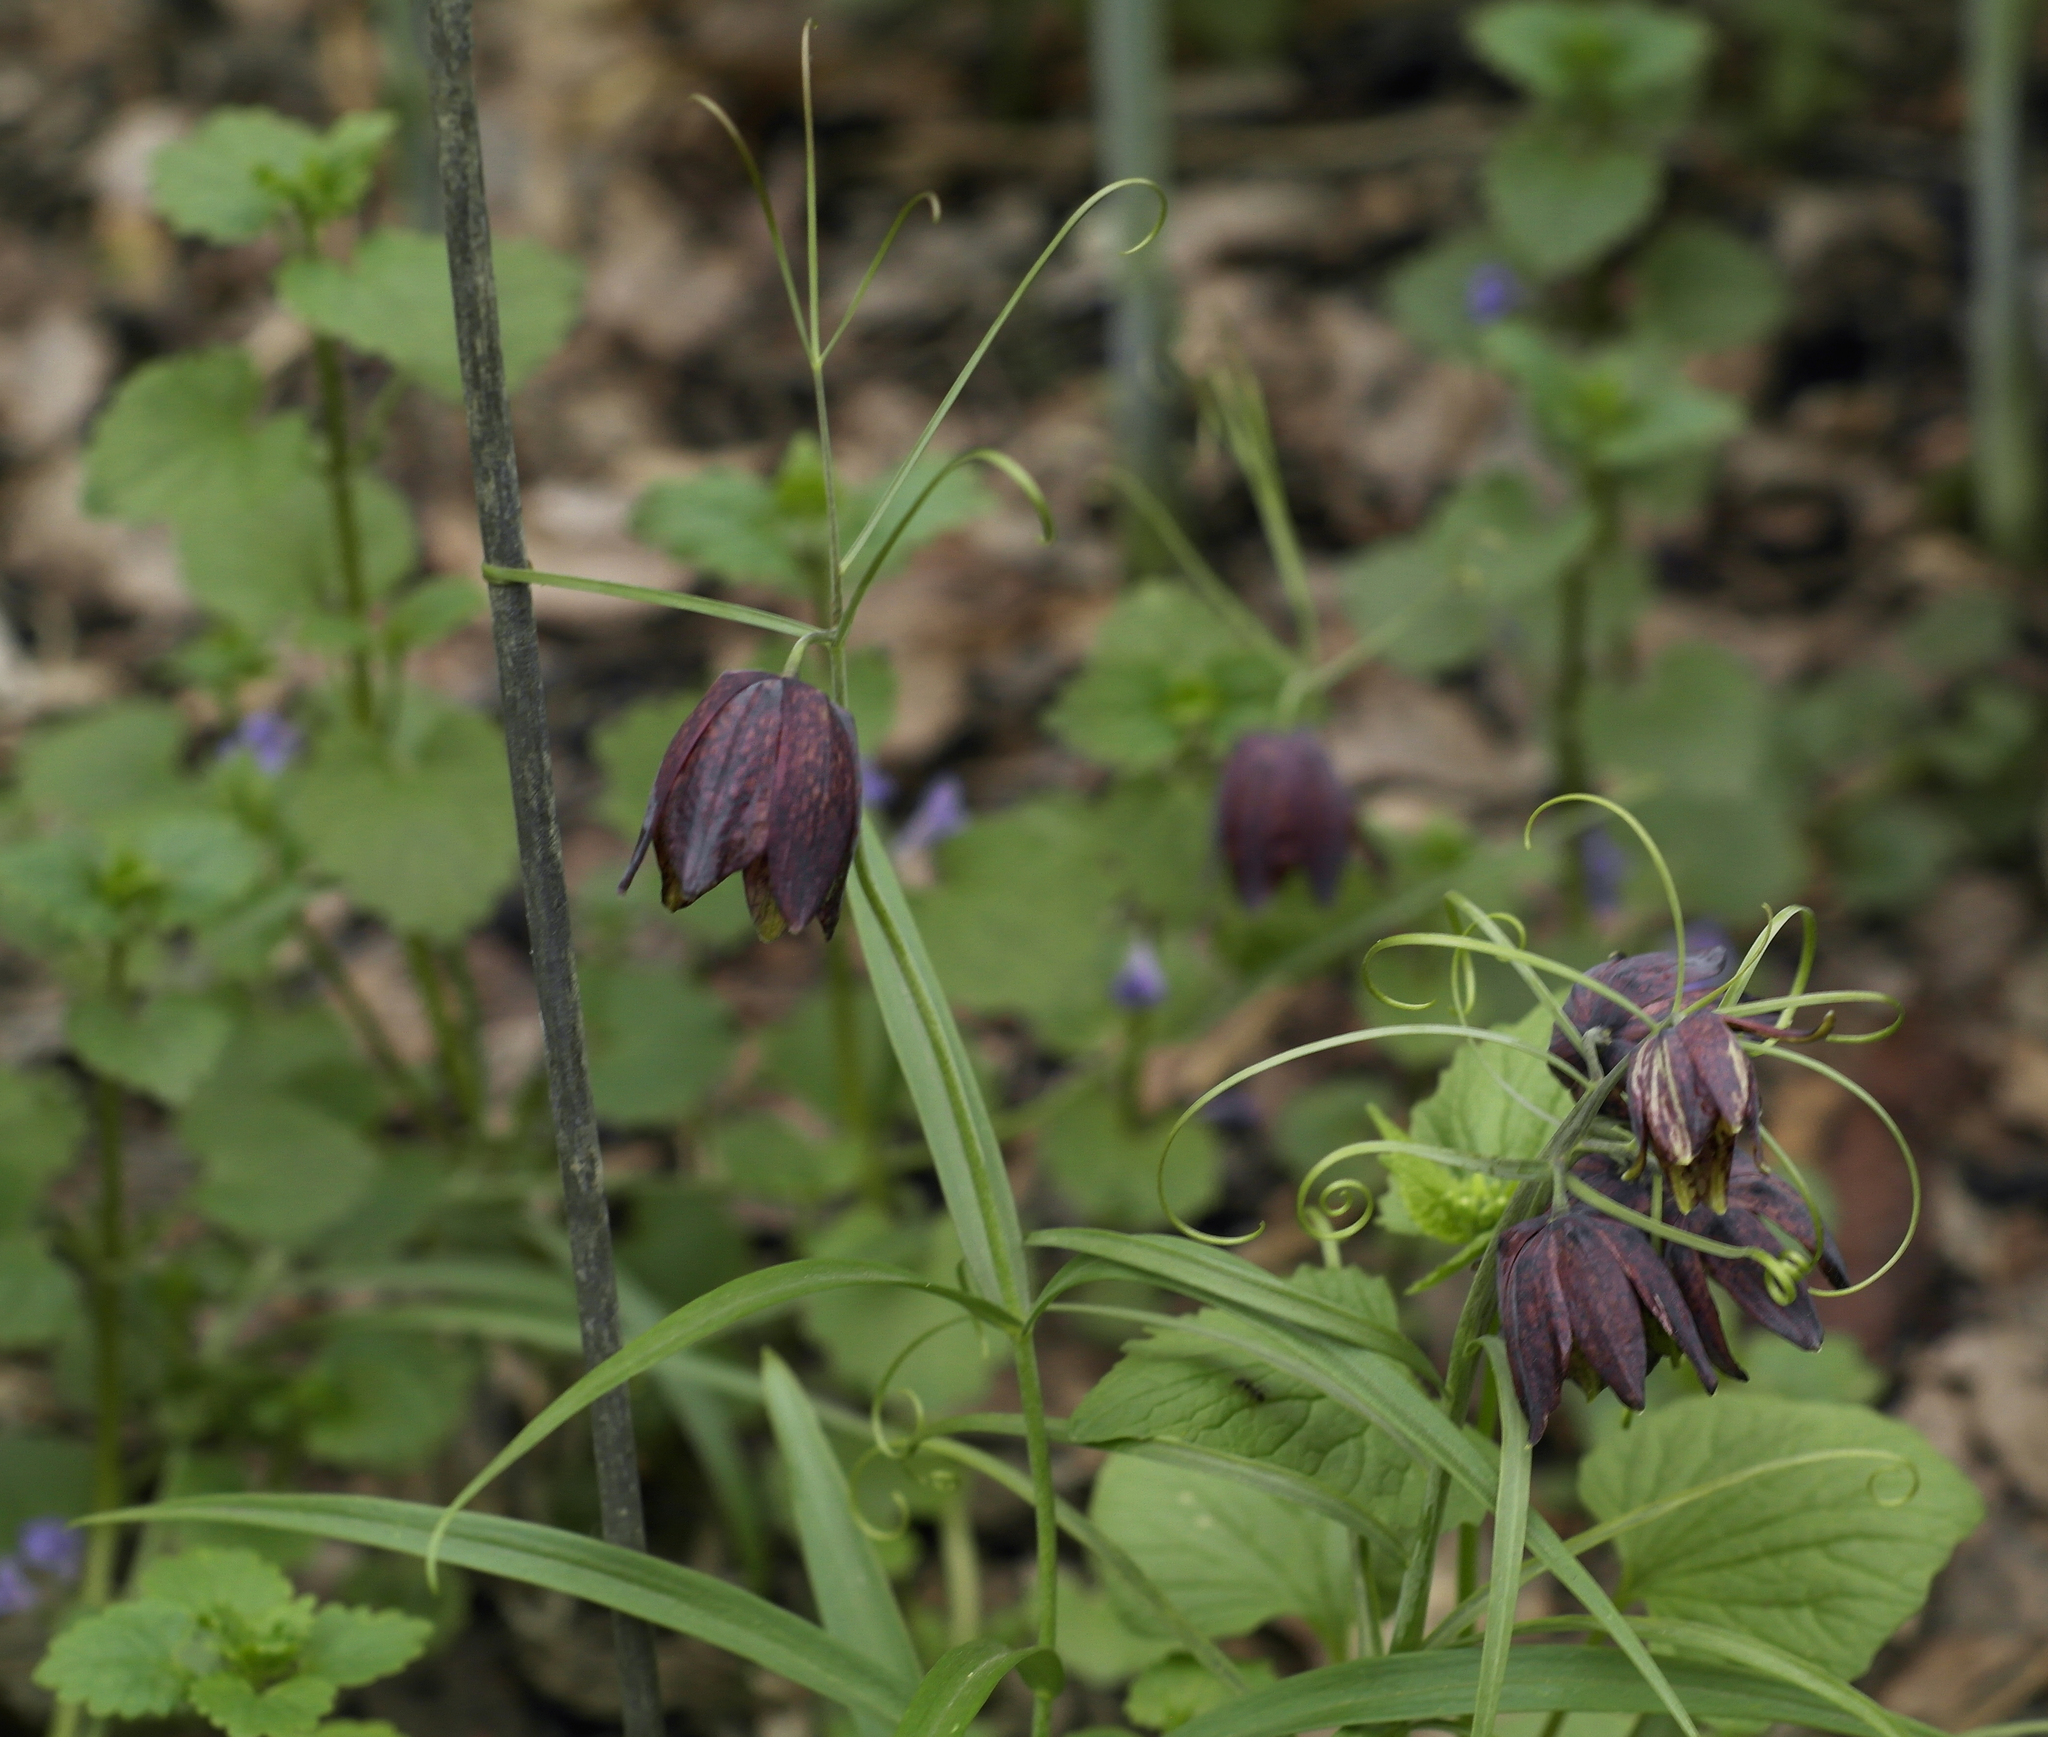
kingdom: Plantae
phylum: Tracheophyta
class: Liliopsida
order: Liliales
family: Liliaceae
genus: Fritillaria
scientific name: Fritillaria ruthenica
